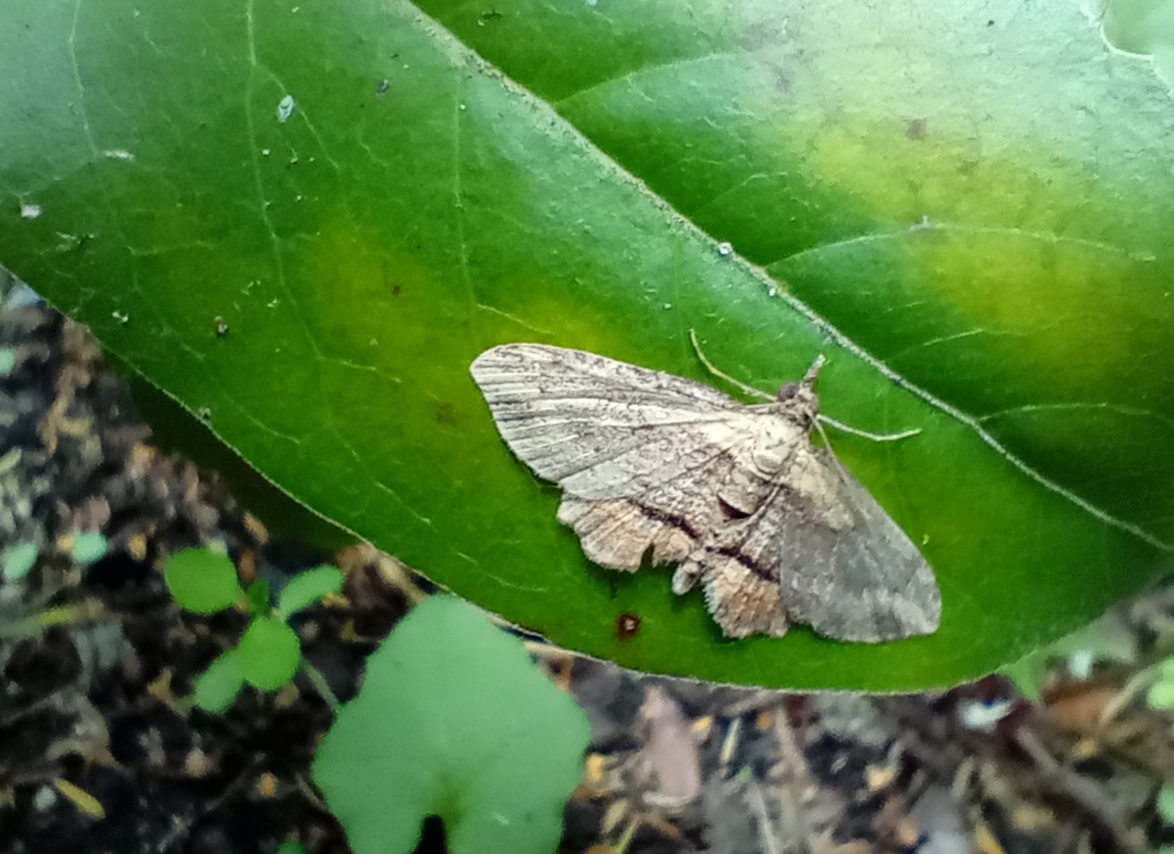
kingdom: Animalia
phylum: Arthropoda
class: Insecta
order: Lepidoptera
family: Geometridae
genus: Chloroclystis
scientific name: Chloroclystis filata
